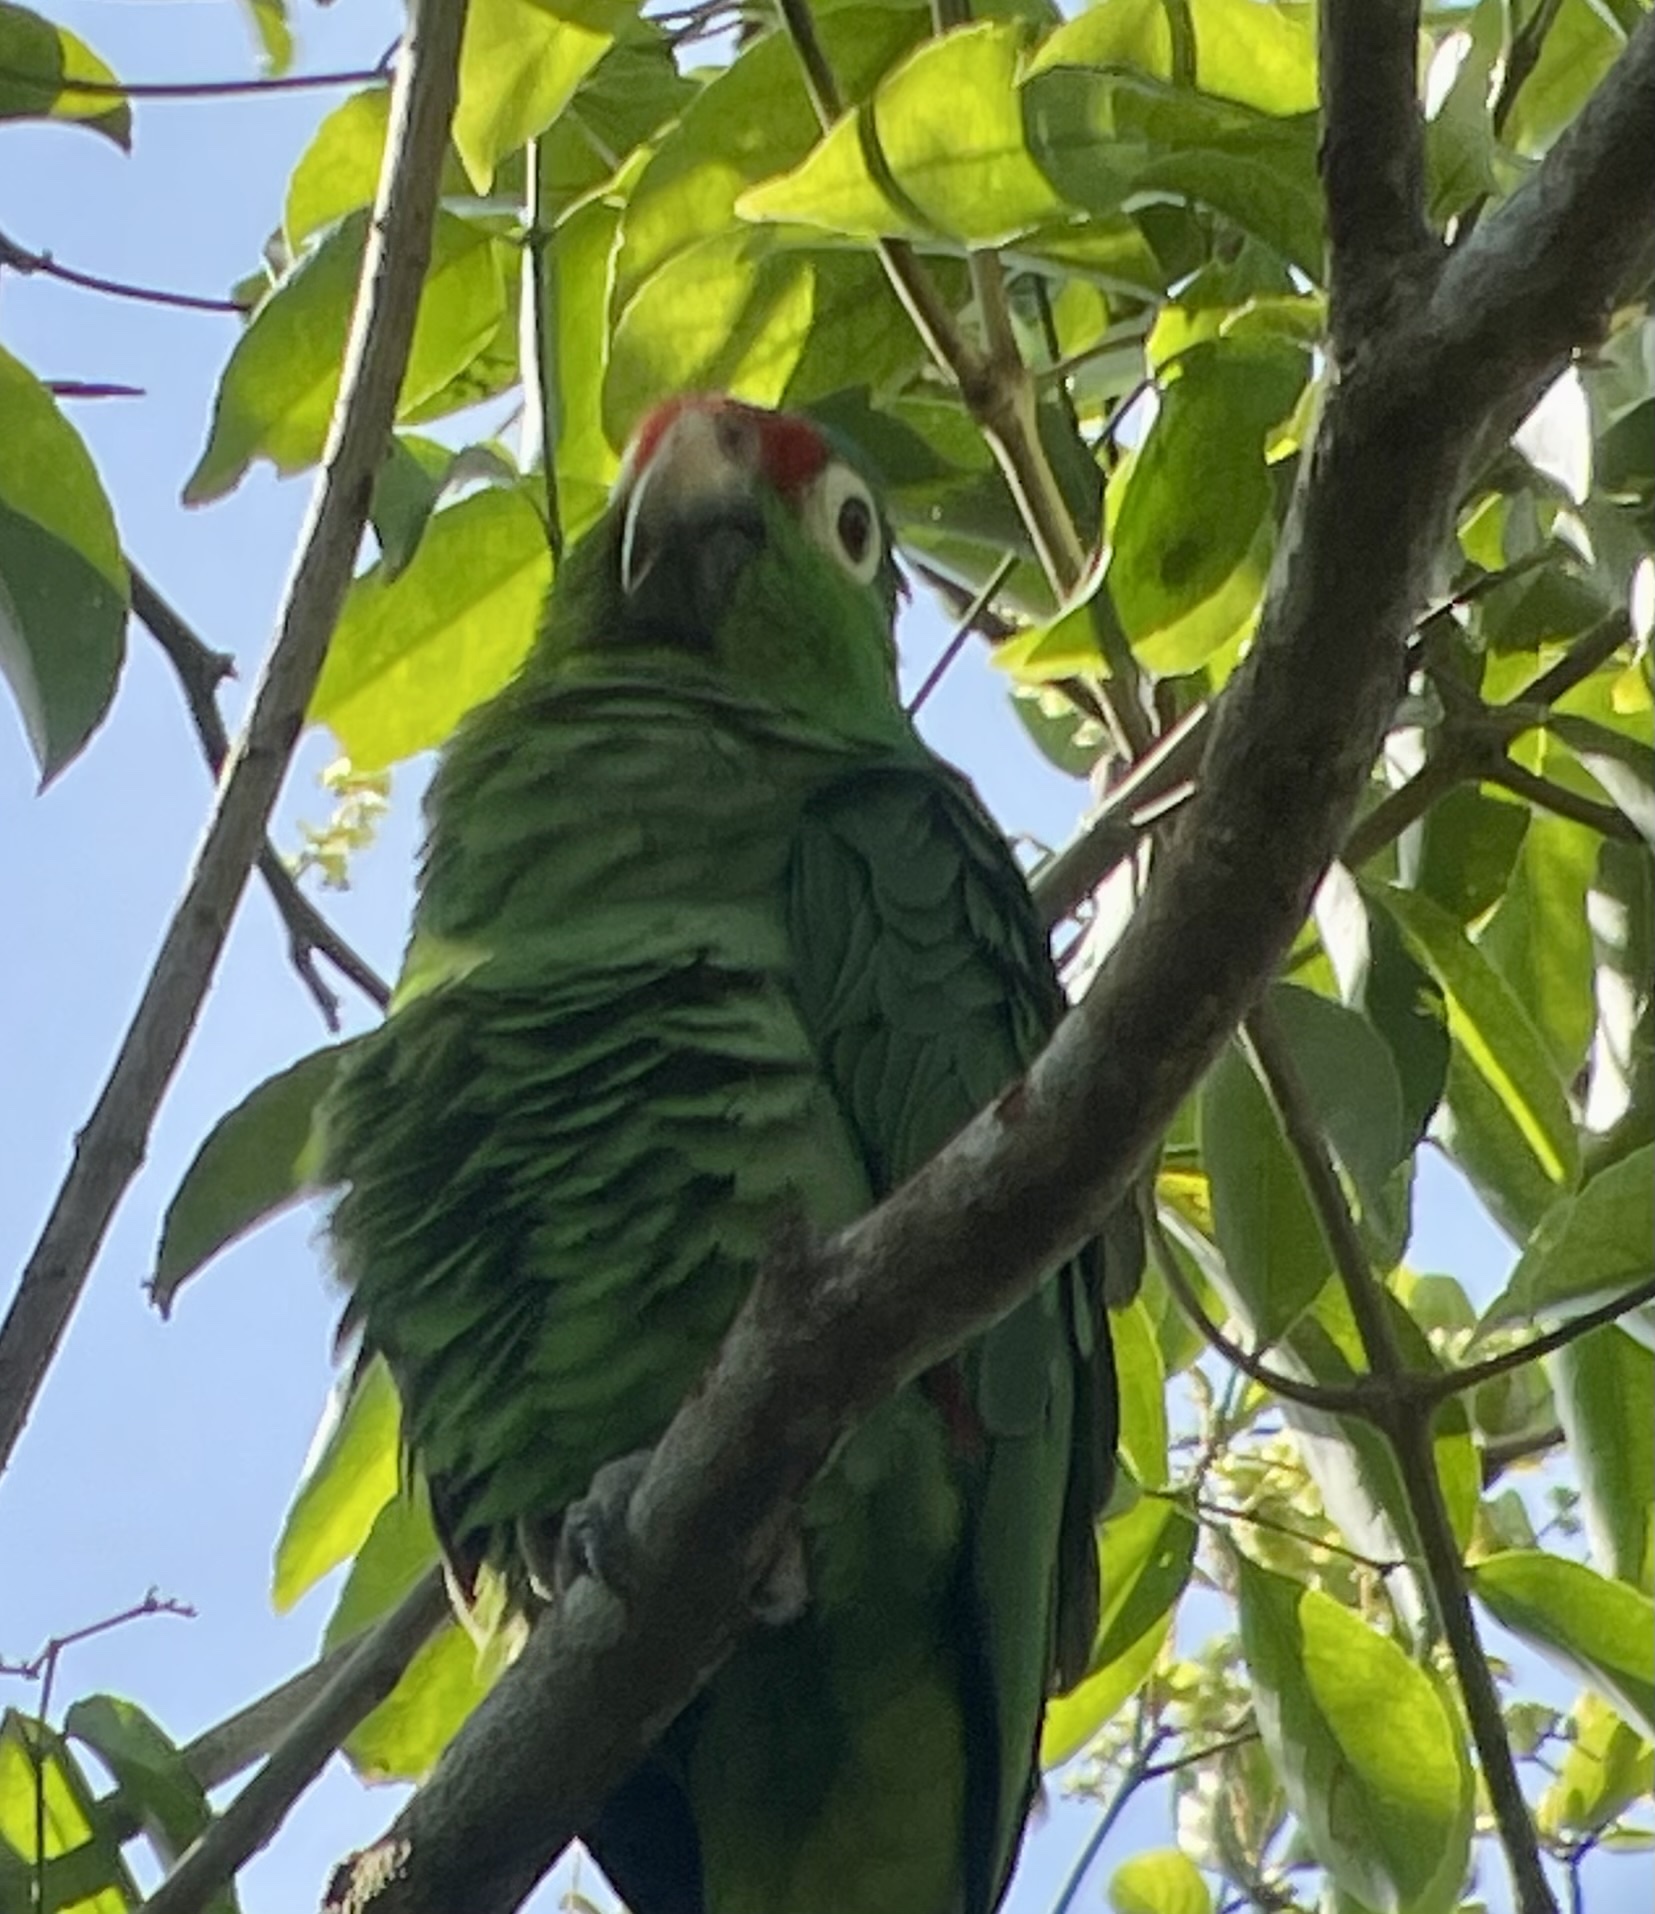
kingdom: Animalia
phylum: Chordata
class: Aves
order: Psittaciformes
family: Psittacidae
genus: Amazona
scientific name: Amazona autumnalis
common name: Red-lored amazon
